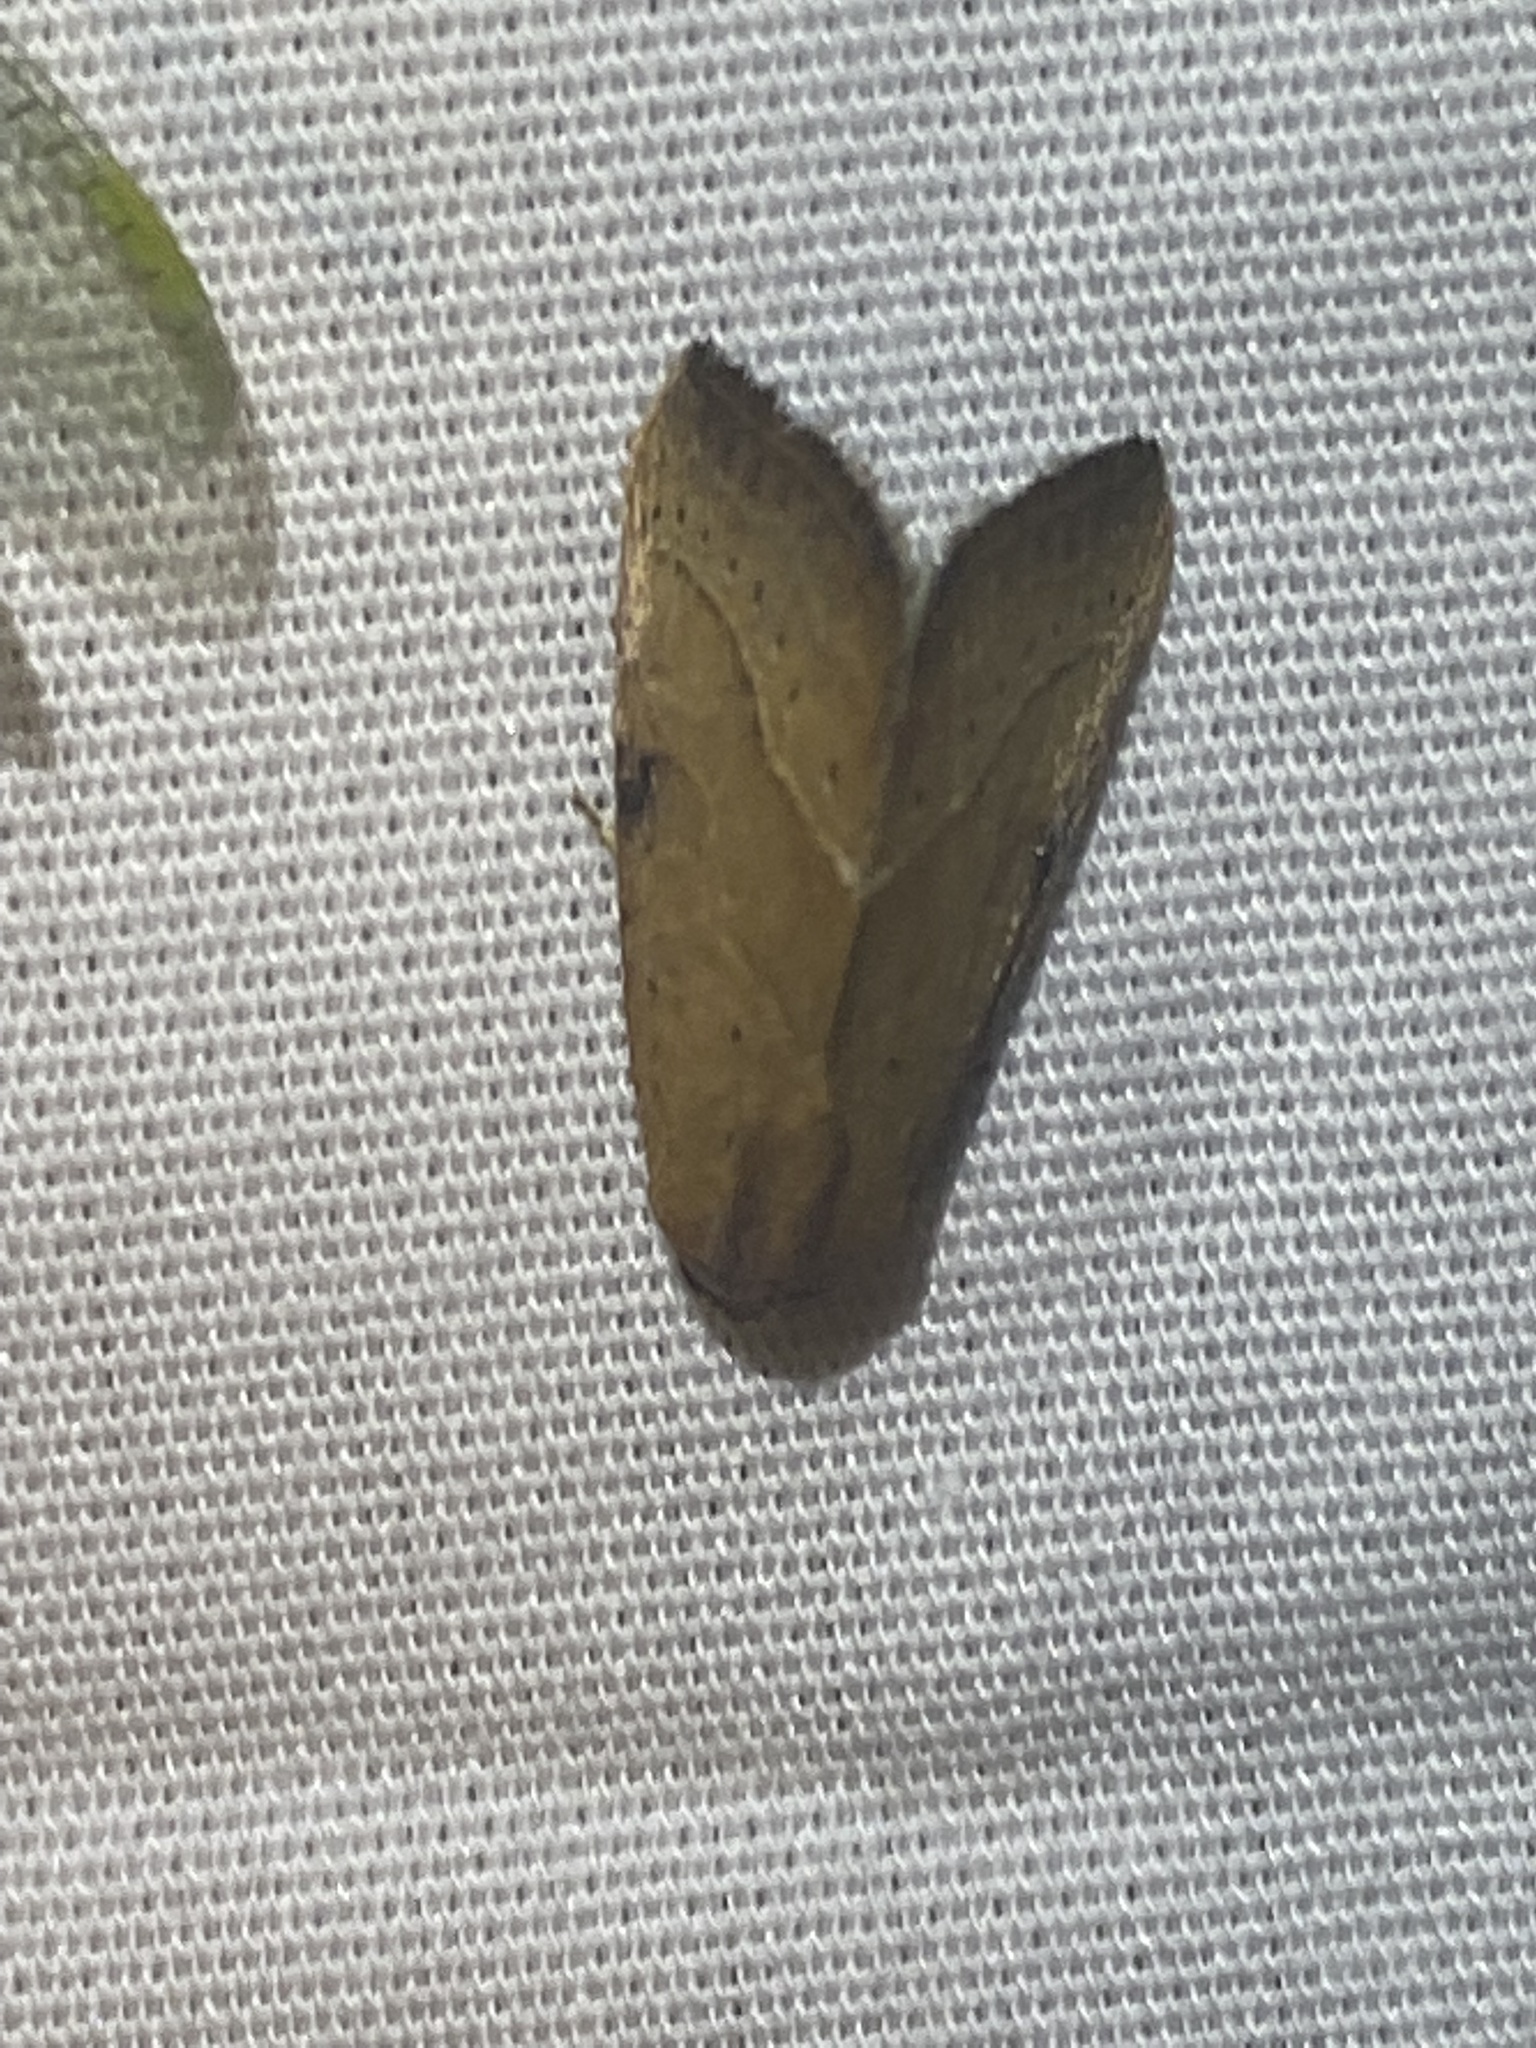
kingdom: Animalia
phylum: Arthropoda
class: Insecta
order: Lepidoptera
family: Noctuidae
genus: Galgula
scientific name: Galgula partita
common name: Wedgeling
